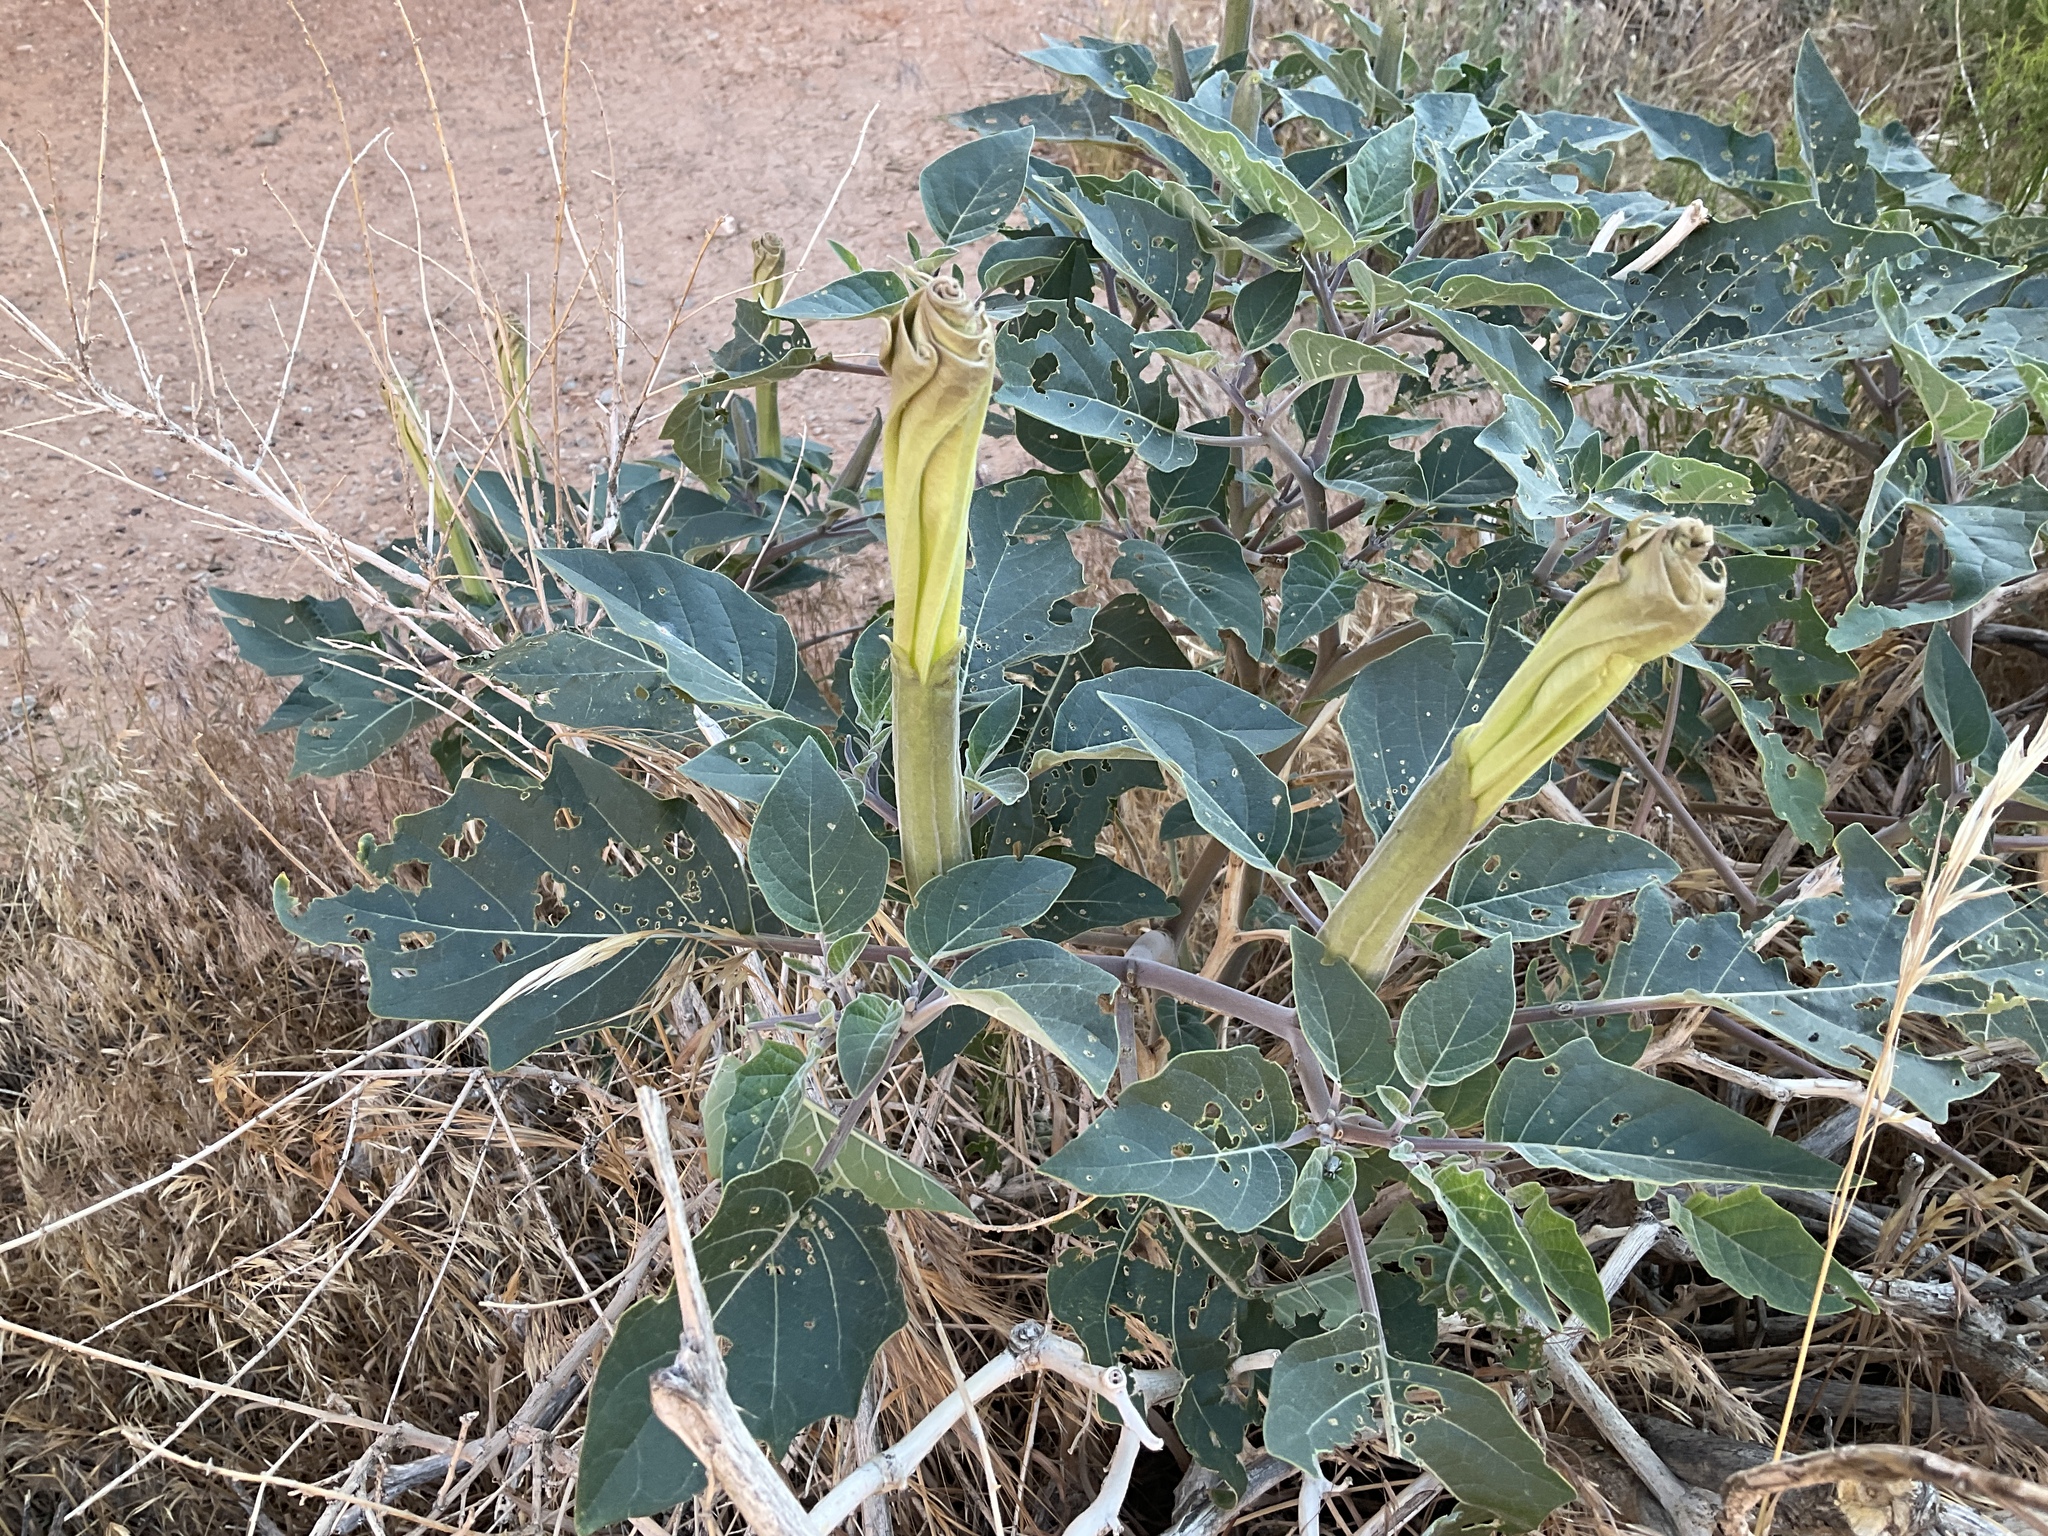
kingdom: Plantae
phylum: Tracheophyta
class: Magnoliopsida
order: Solanales
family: Solanaceae
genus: Datura
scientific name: Datura wrightii
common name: Sacred thorn-apple
